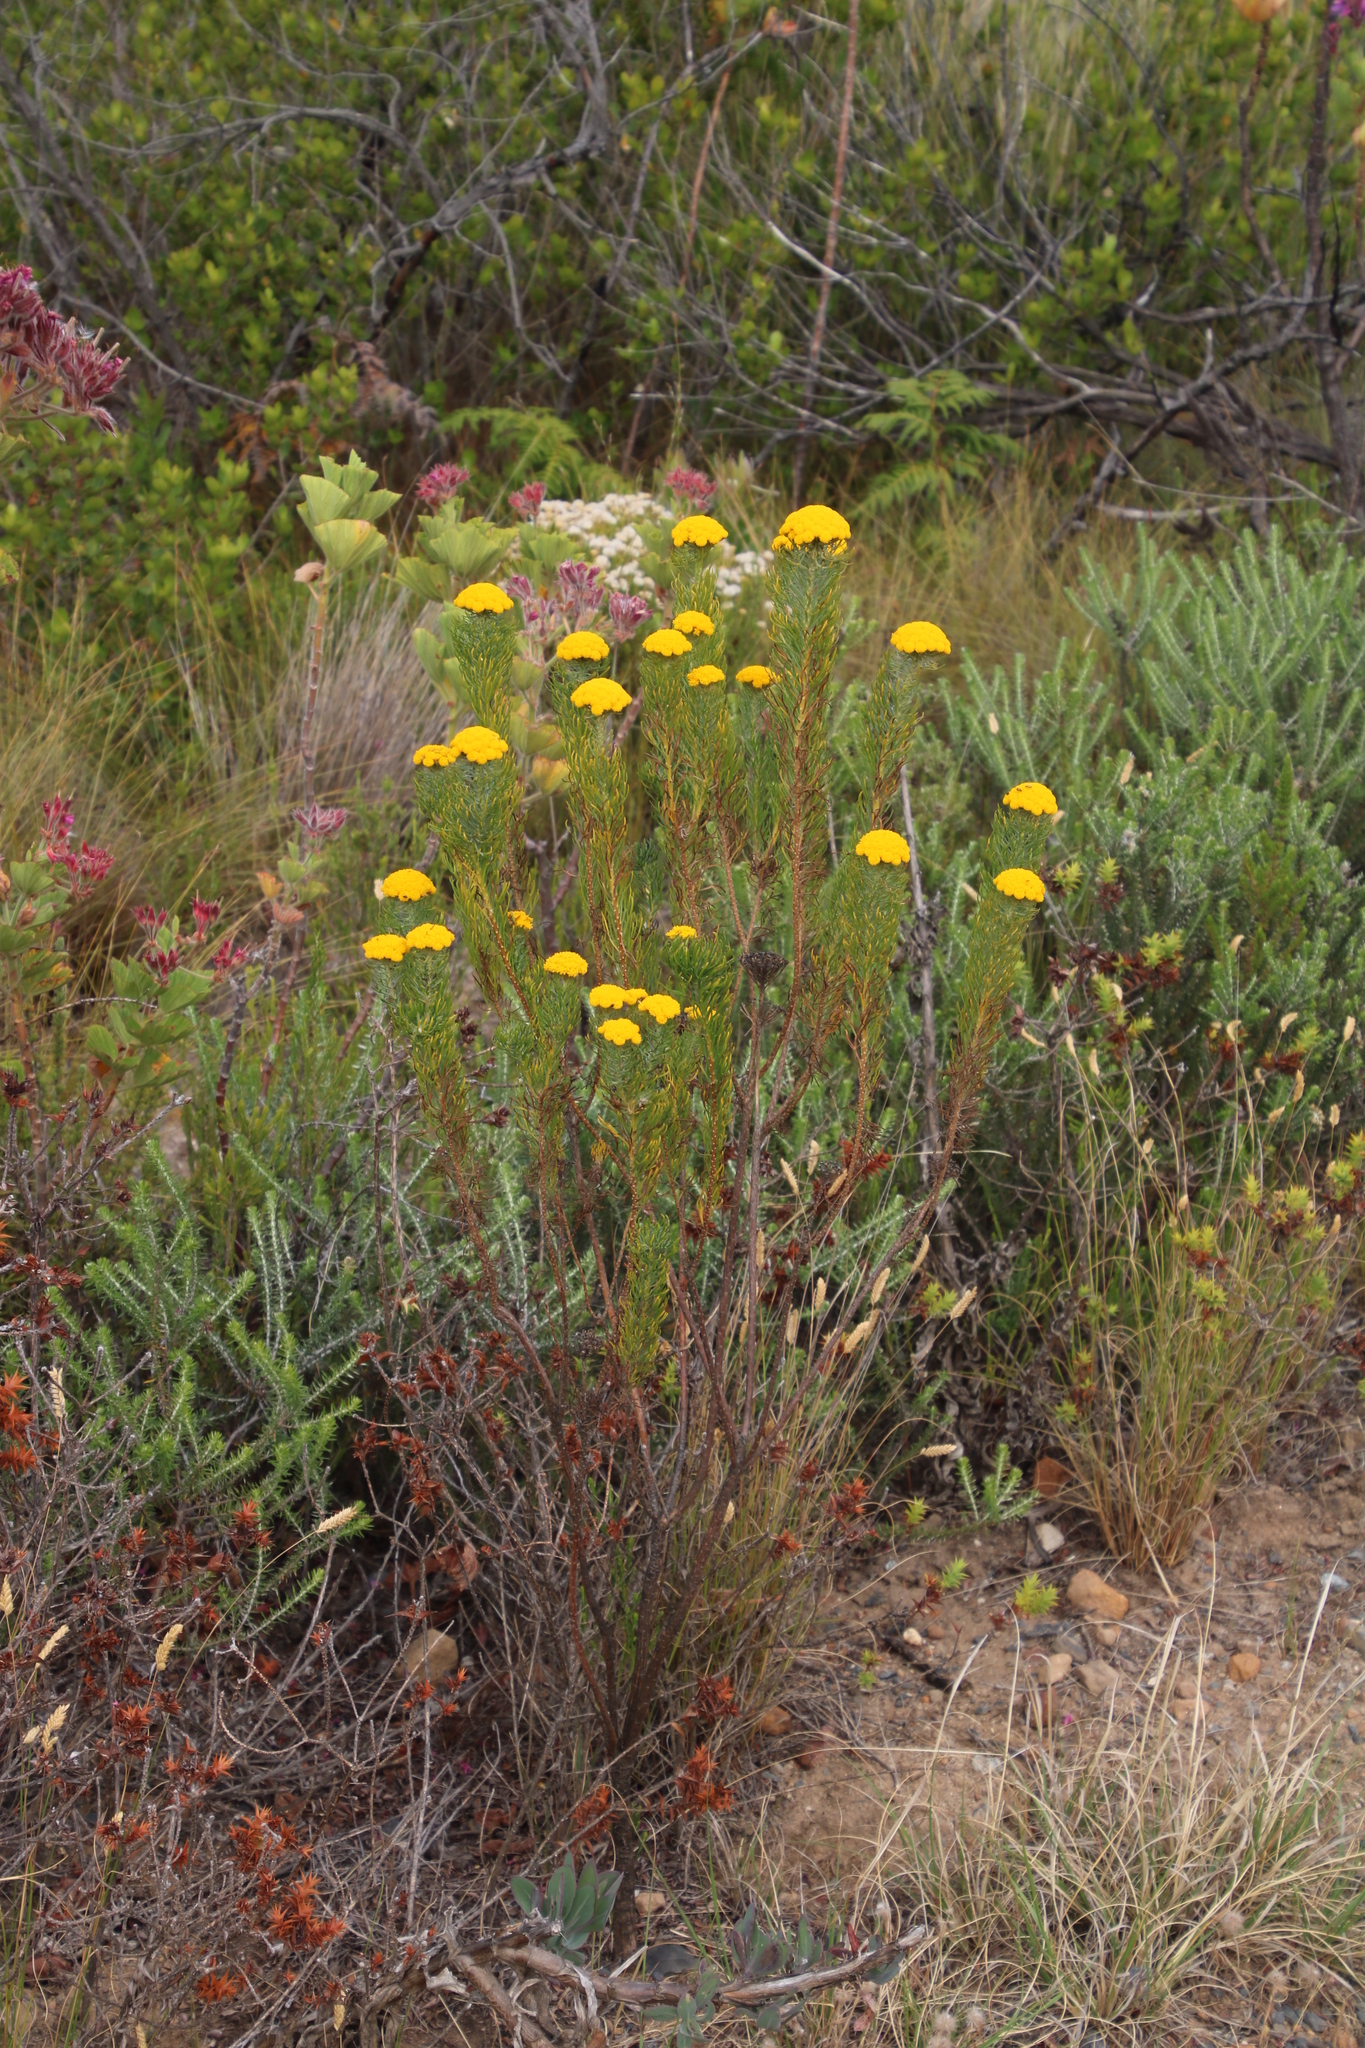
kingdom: Plantae
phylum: Tracheophyta
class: Magnoliopsida
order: Asterales
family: Asteraceae
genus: Athanasia
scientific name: Athanasia crithmifolia
